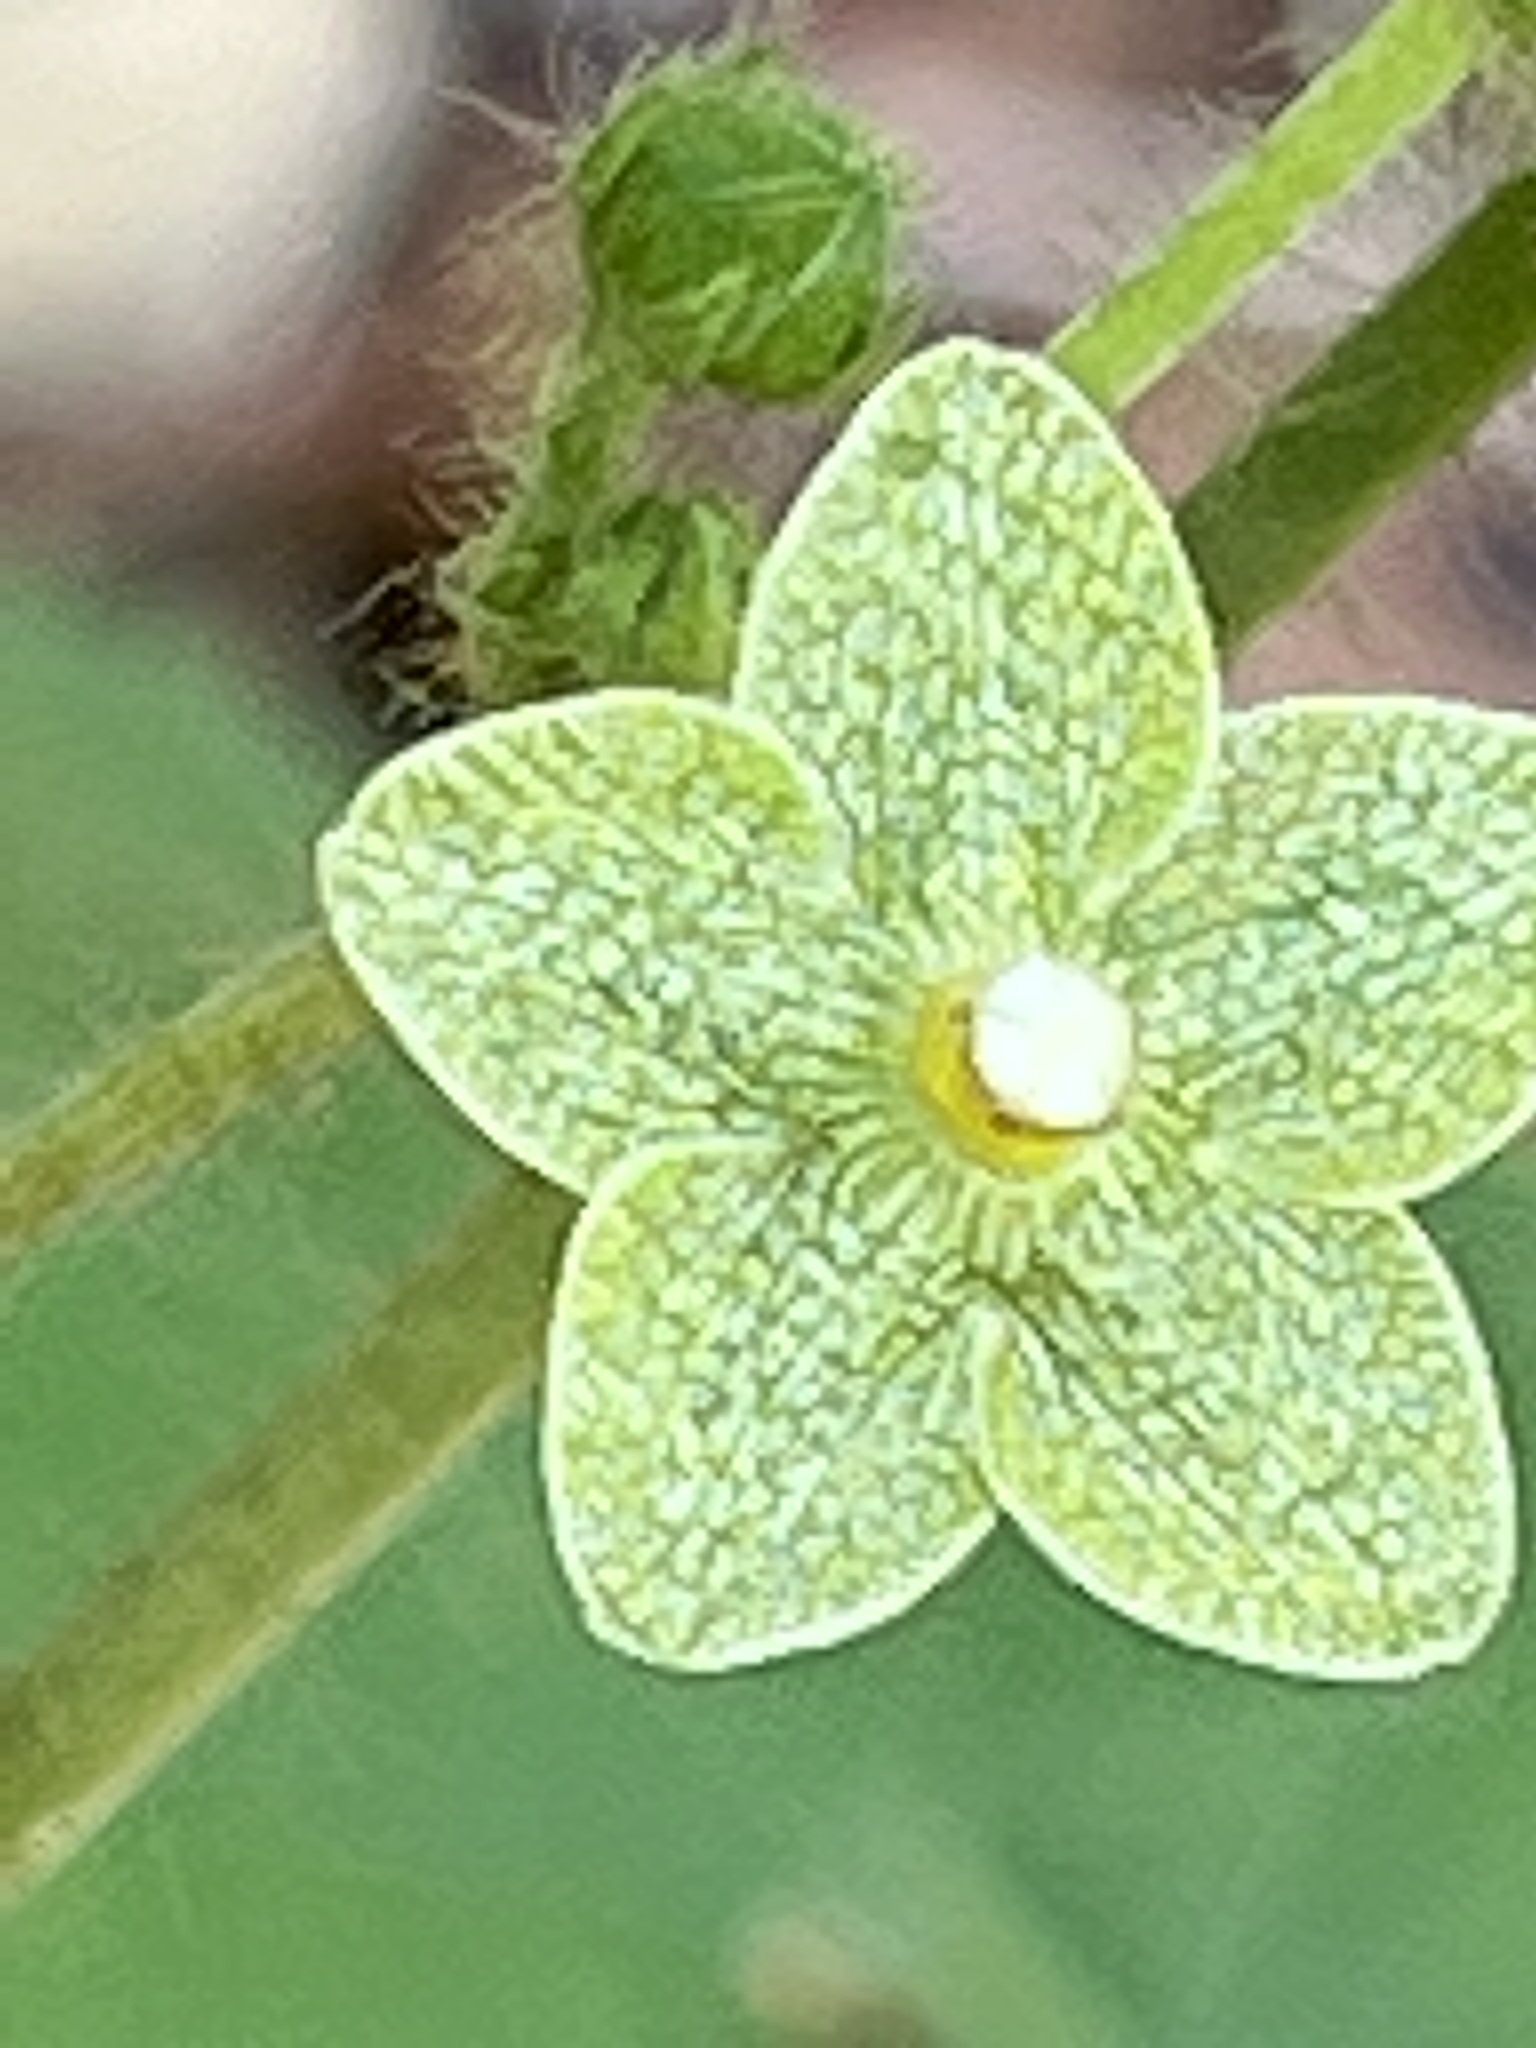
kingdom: Plantae
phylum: Tracheophyta
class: Magnoliopsida
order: Gentianales
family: Apocynaceae
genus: Dictyanthus
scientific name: Dictyanthus reticulatus
